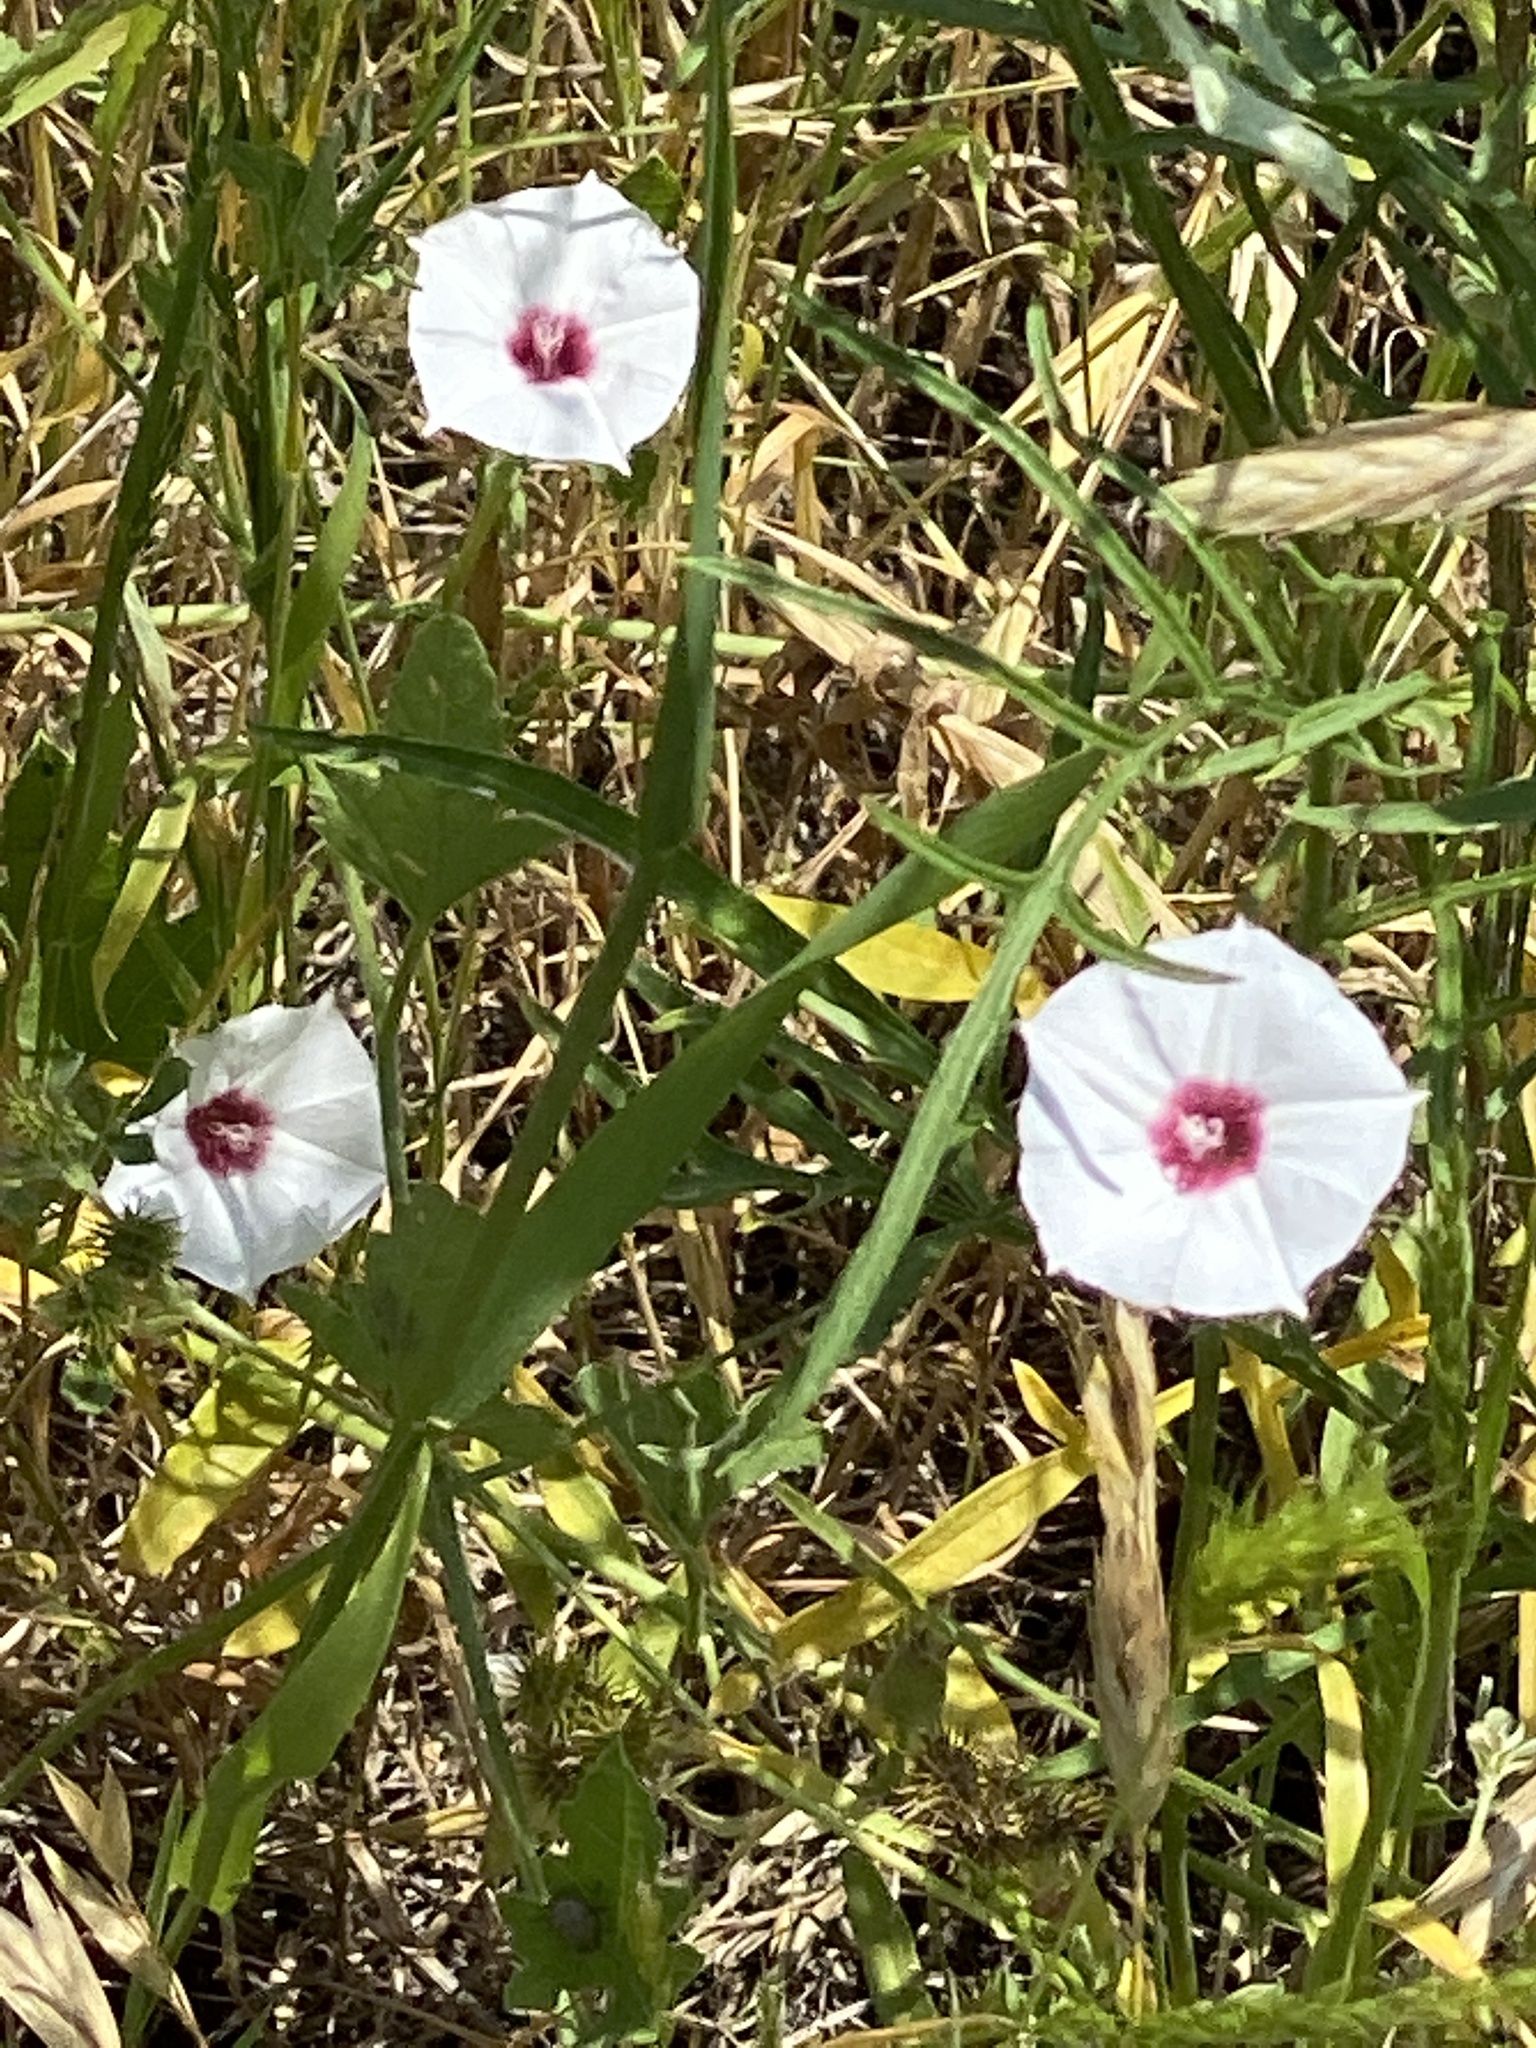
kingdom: Plantae
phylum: Tracheophyta
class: Magnoliopsida
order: Solanales
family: Convolvulaceae
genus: Convolvulus
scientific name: Convolvulus equitans
